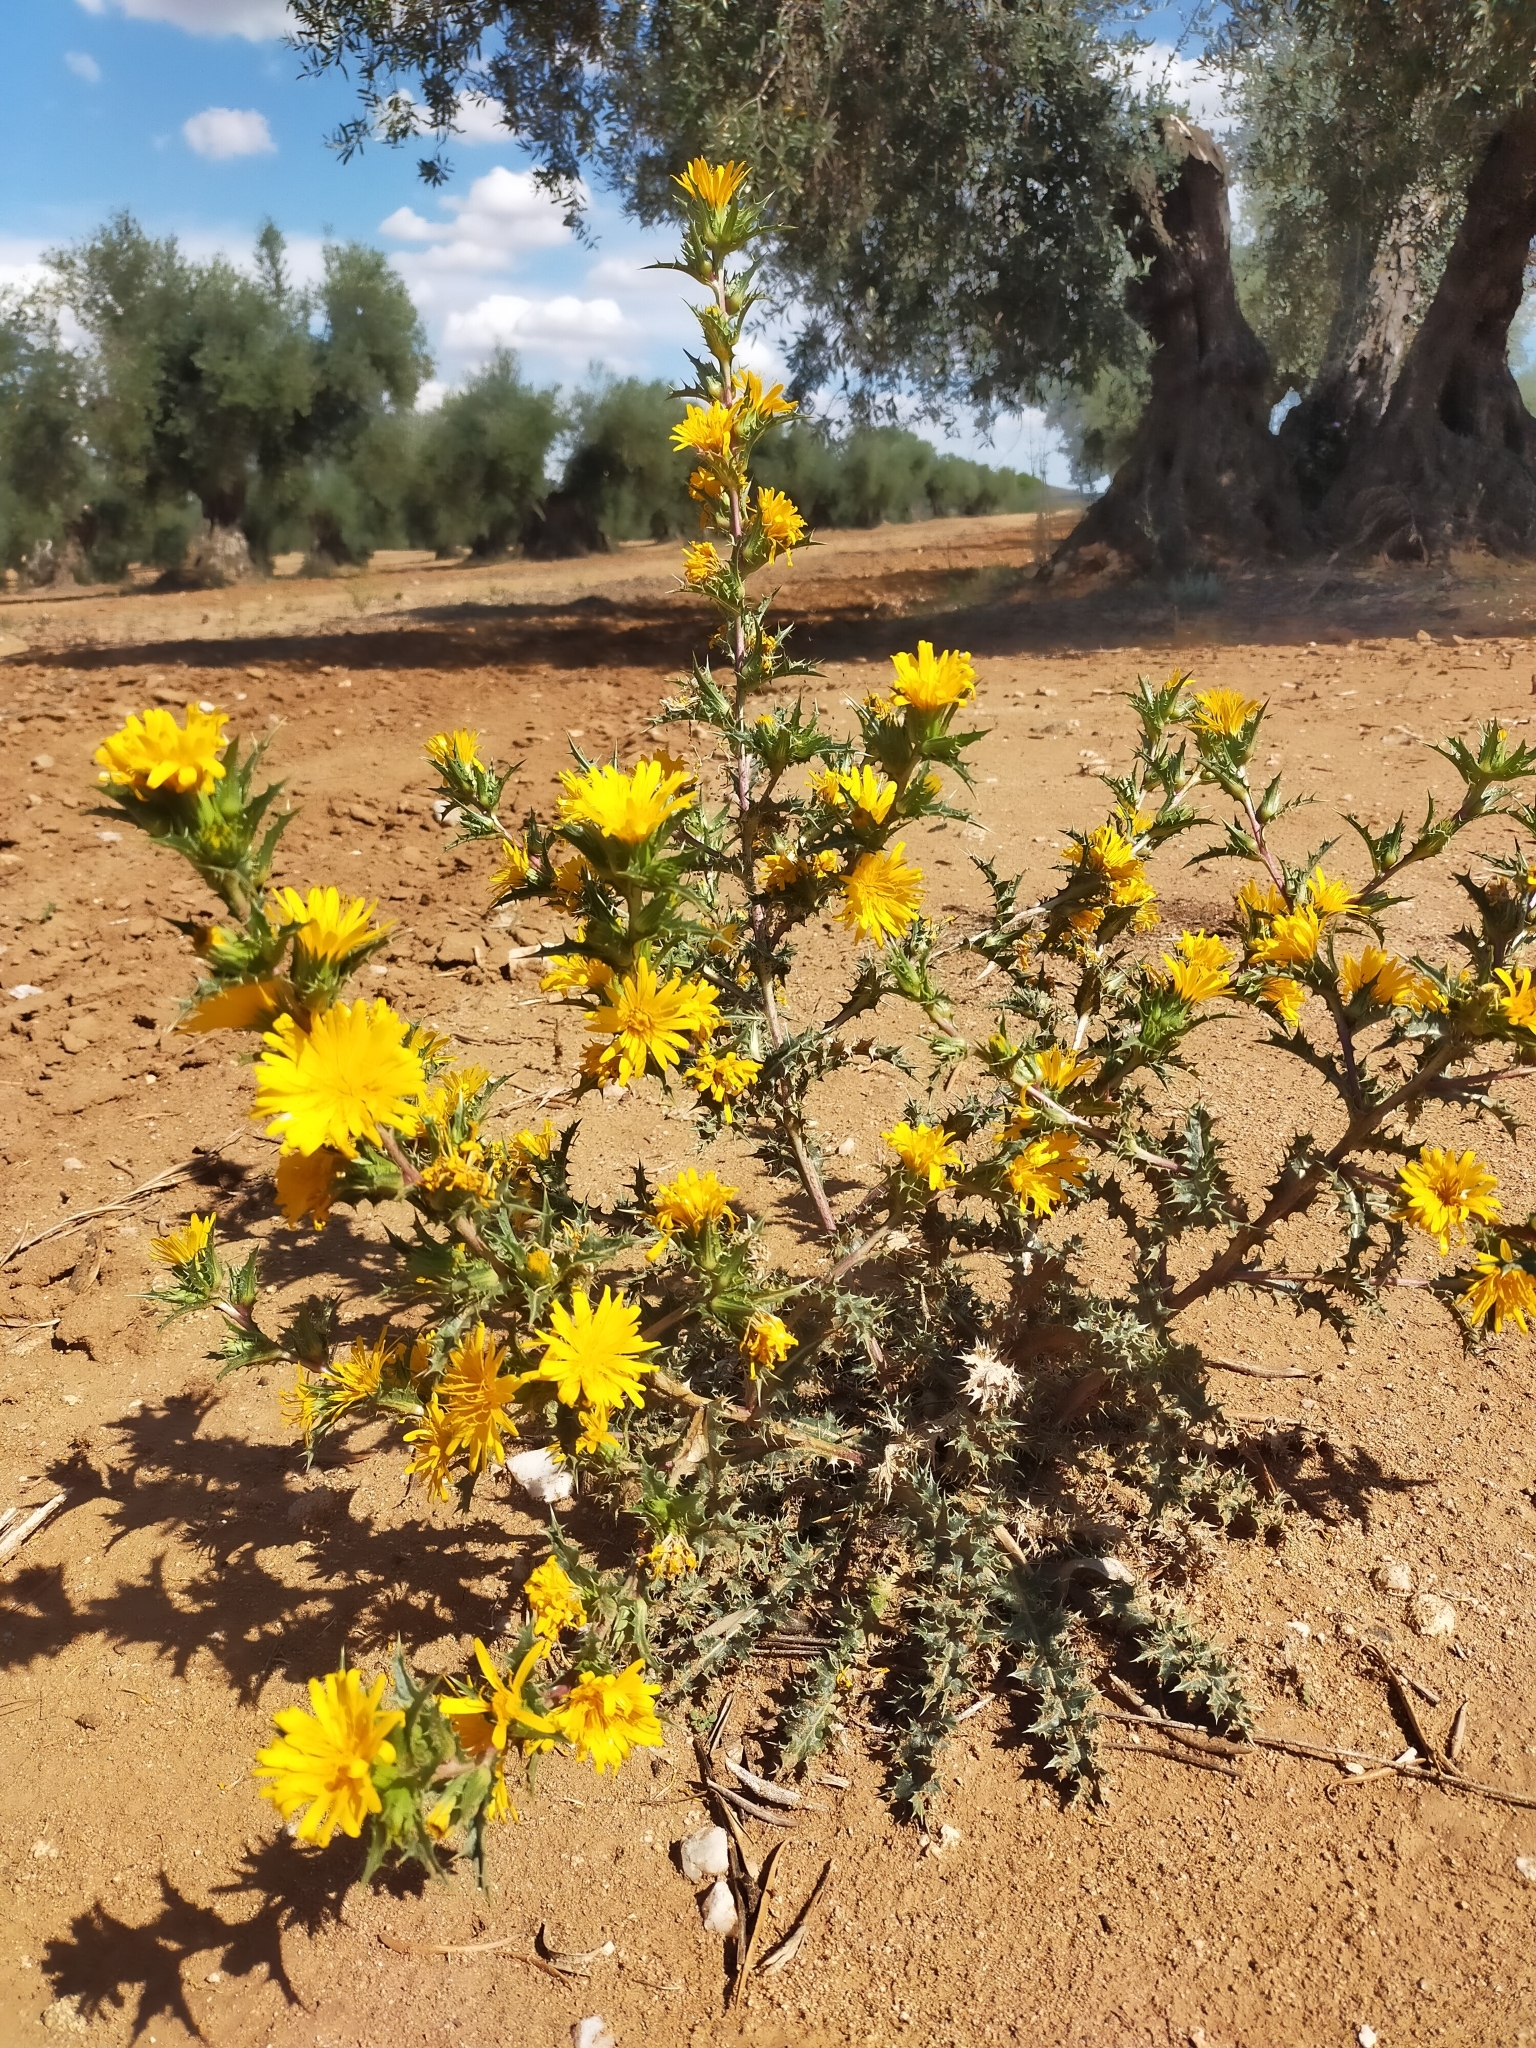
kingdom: Plantae
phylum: Tracheophyta
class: Magnoliopsida
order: Asterales
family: Asteraceae
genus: Scolymus
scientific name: Scolymus hispanicus
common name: Golden thistle
